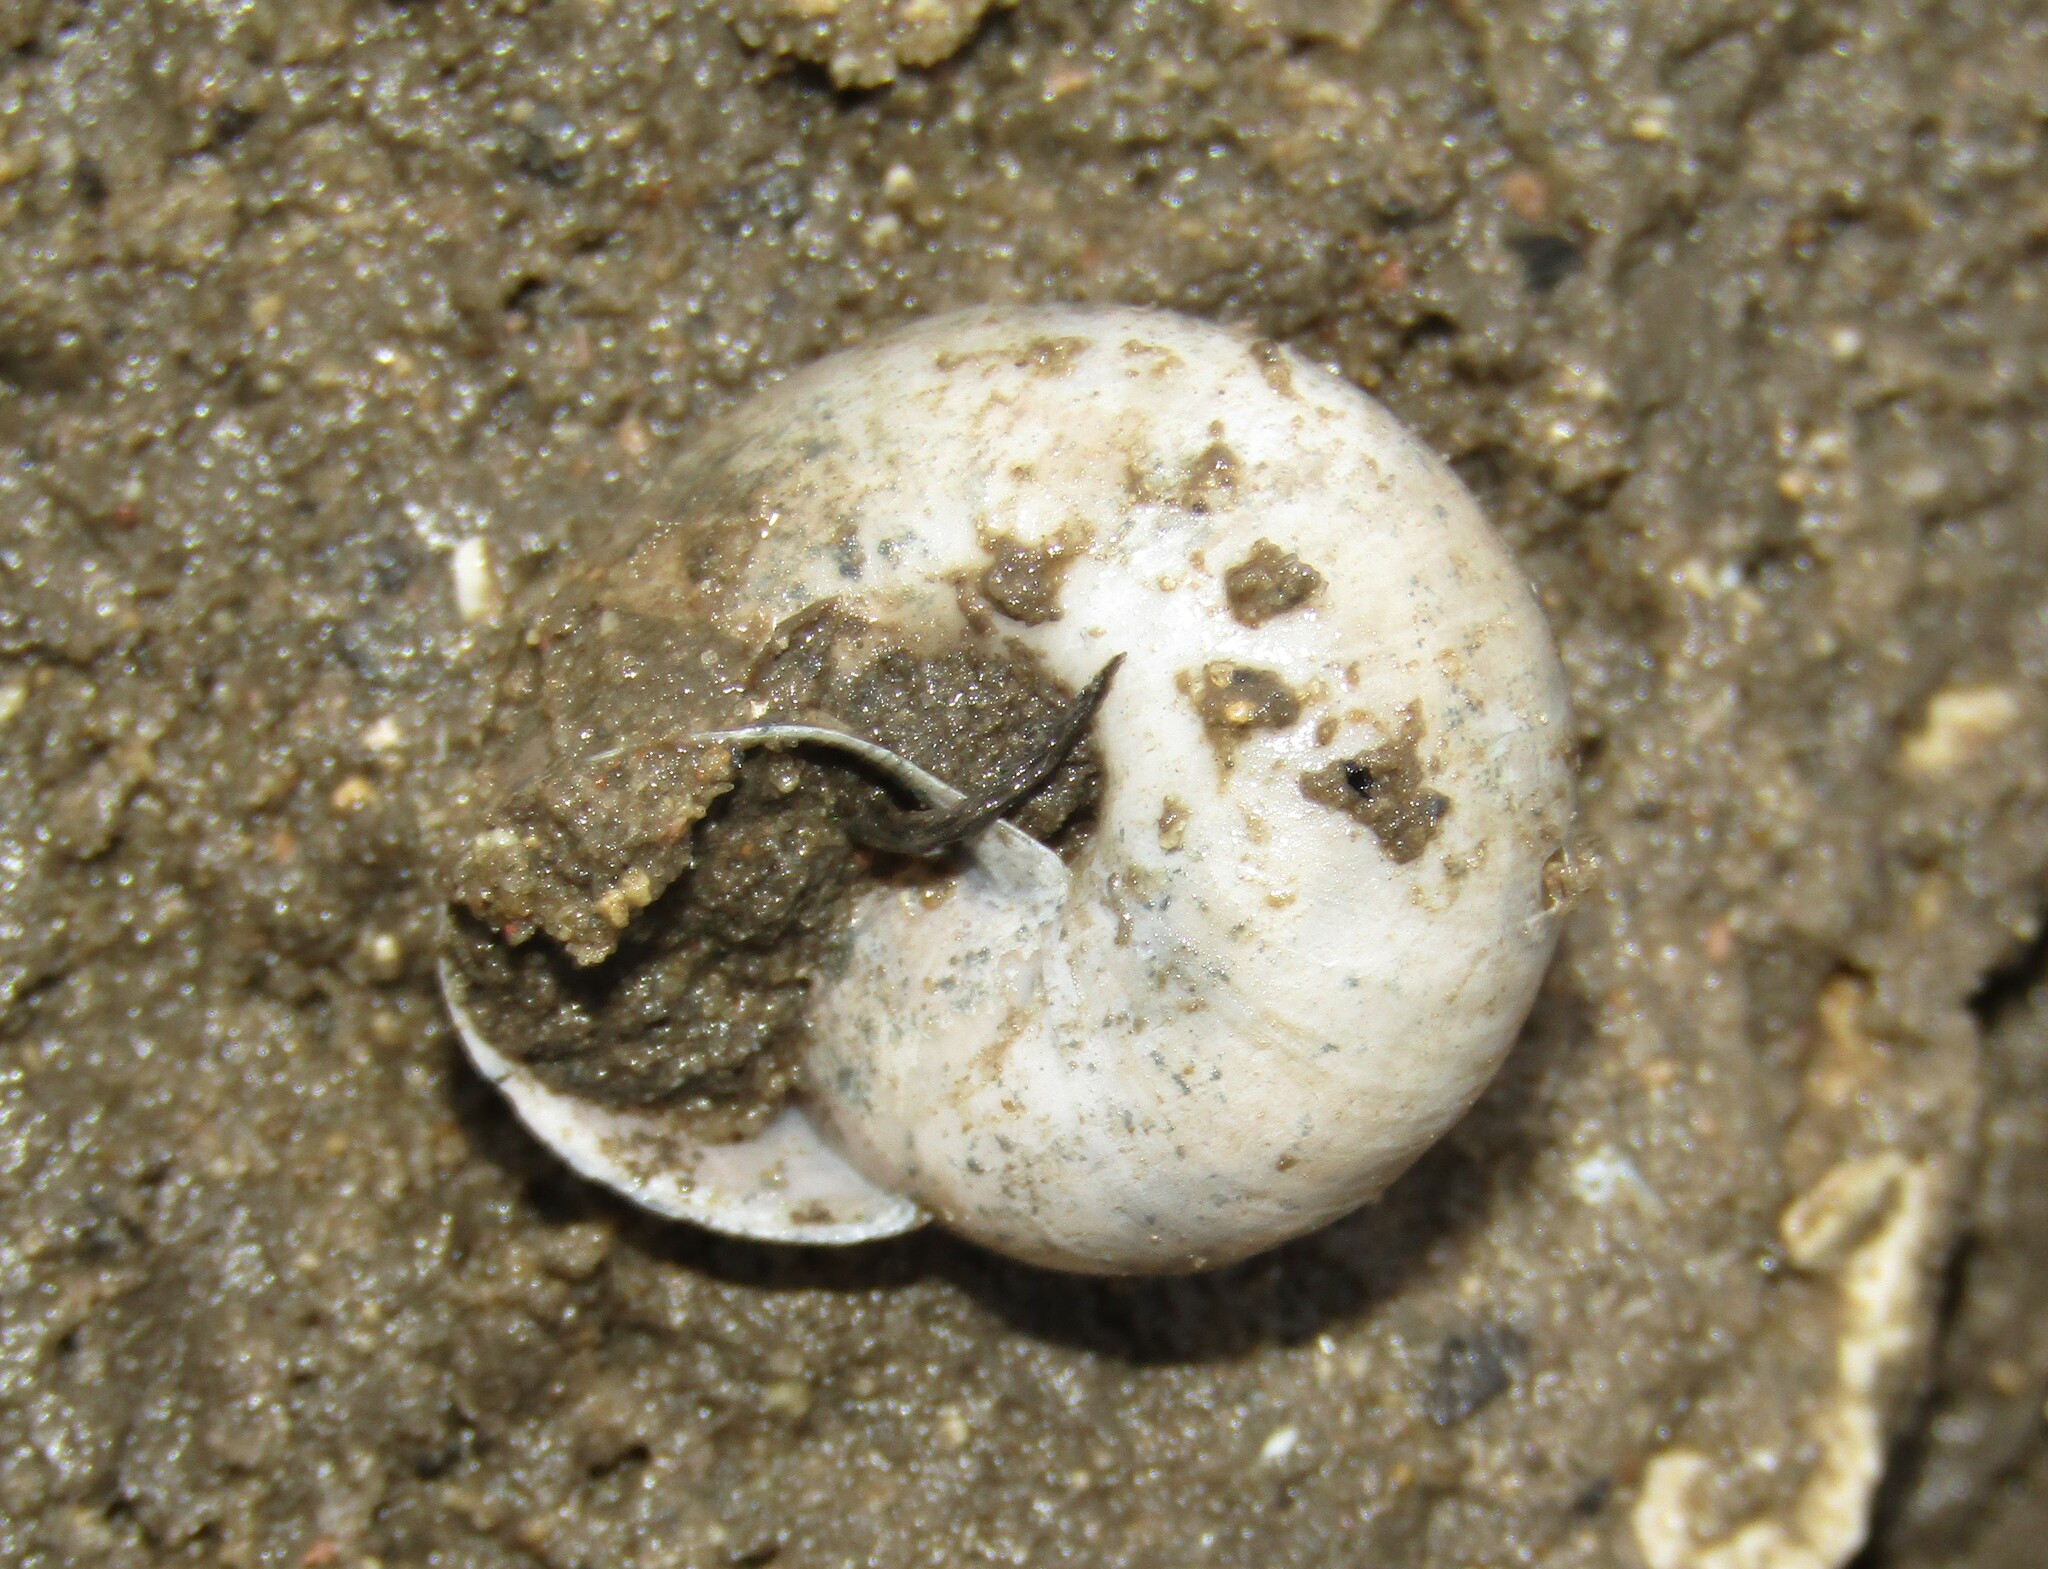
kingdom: Animalia
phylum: Mollusca
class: Gastropoda
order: Stylommatophora
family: Camaenidae
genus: Fruticicola
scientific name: Fruticicola fruticum
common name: Bush snail
